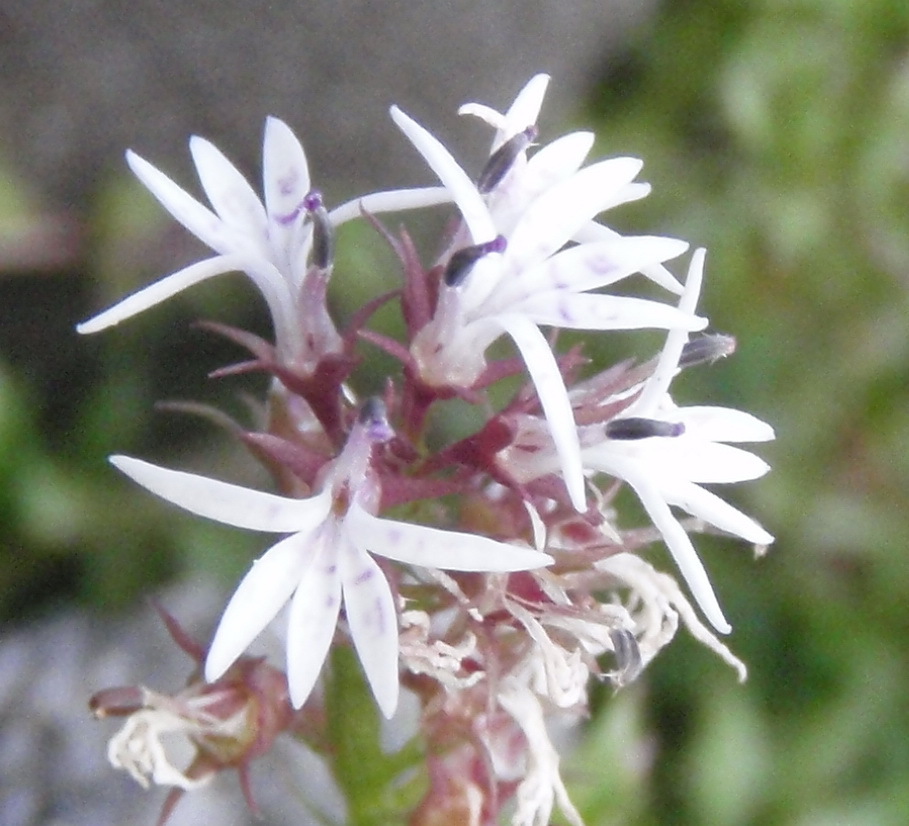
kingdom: Plantae
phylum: Tracheophyta
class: Magnoliopsida
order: Asterales
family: Campanulaceae
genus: Lobelia
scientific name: Lobelia jasionoides
